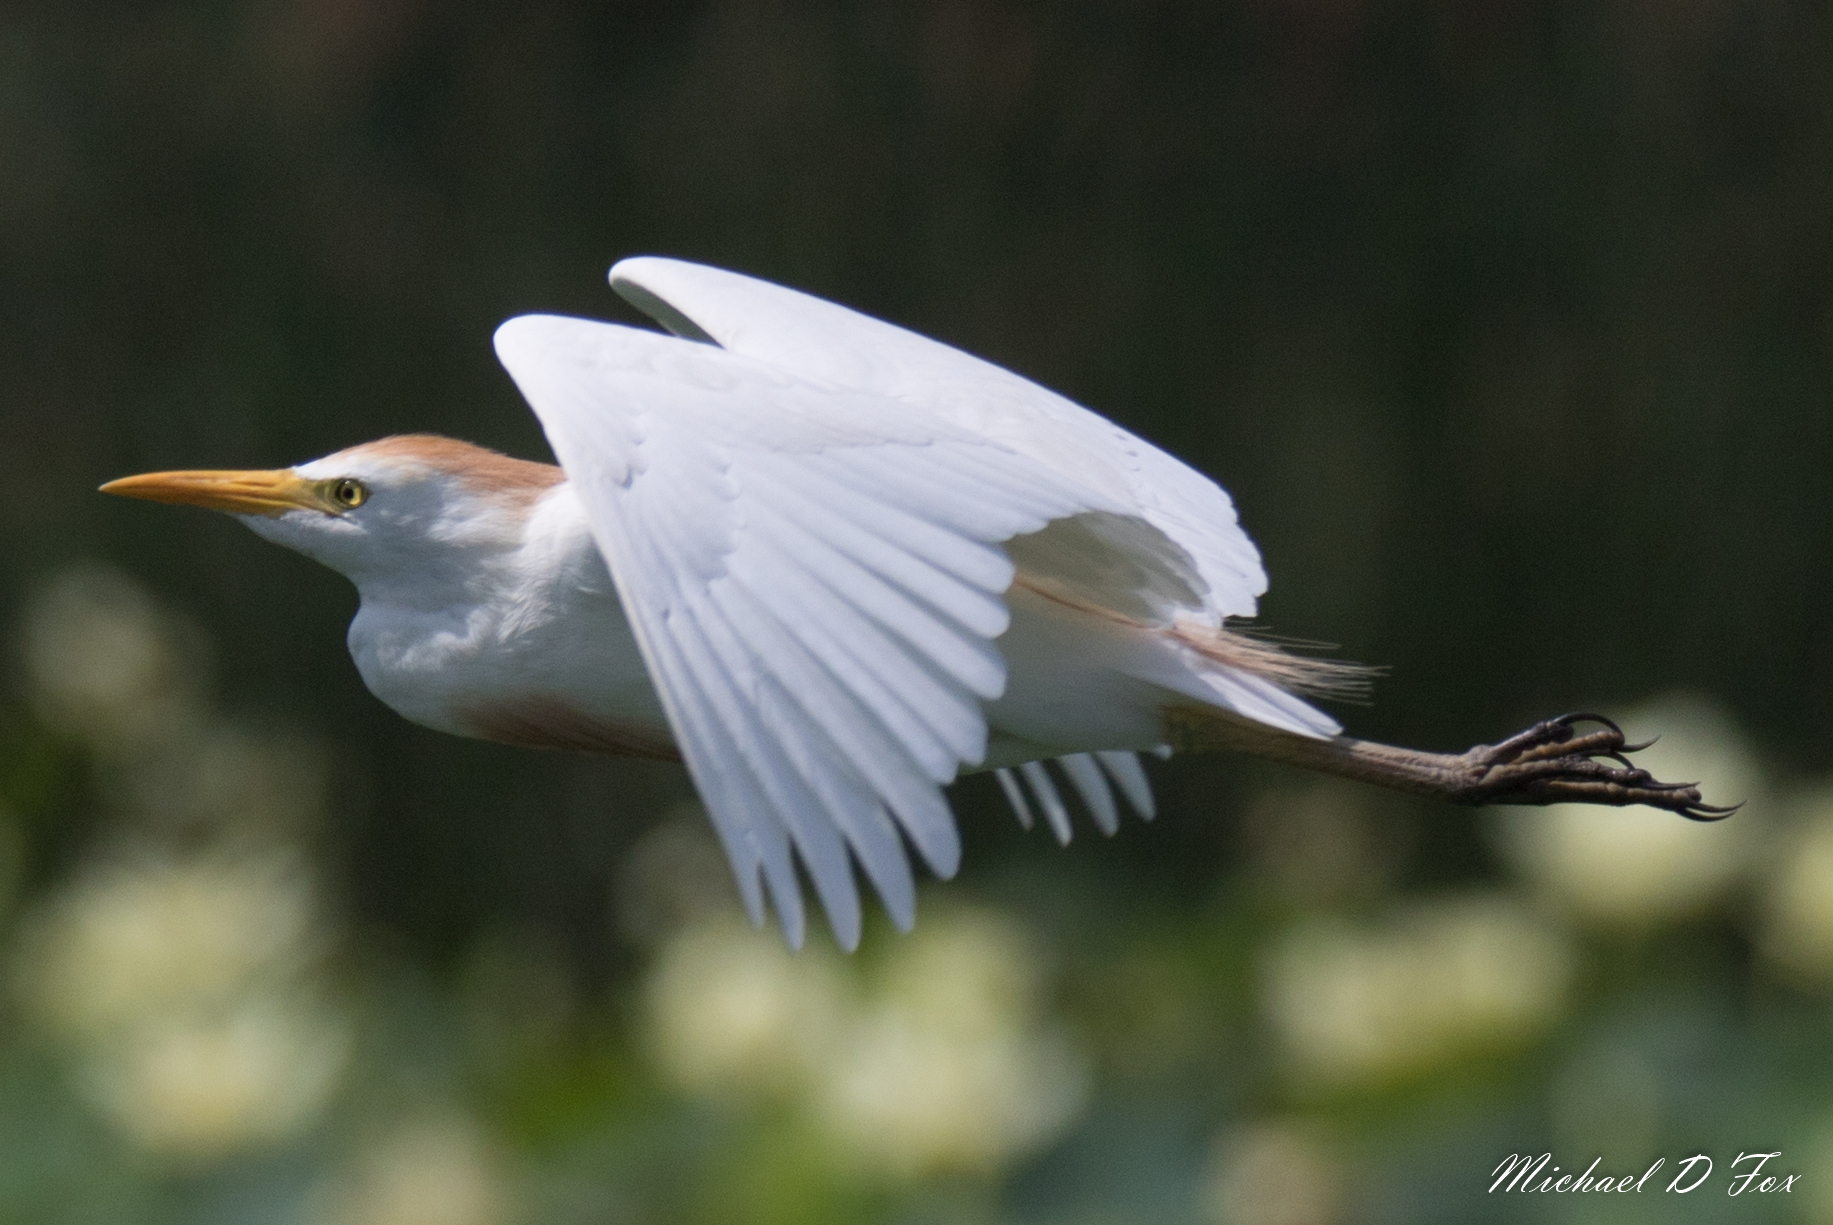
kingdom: Animalia
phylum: Chordata
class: Aves
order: Pelecaniformes
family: Ardeidae
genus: Bubulcus
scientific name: Bubulcus ibis
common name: Cattle egret
